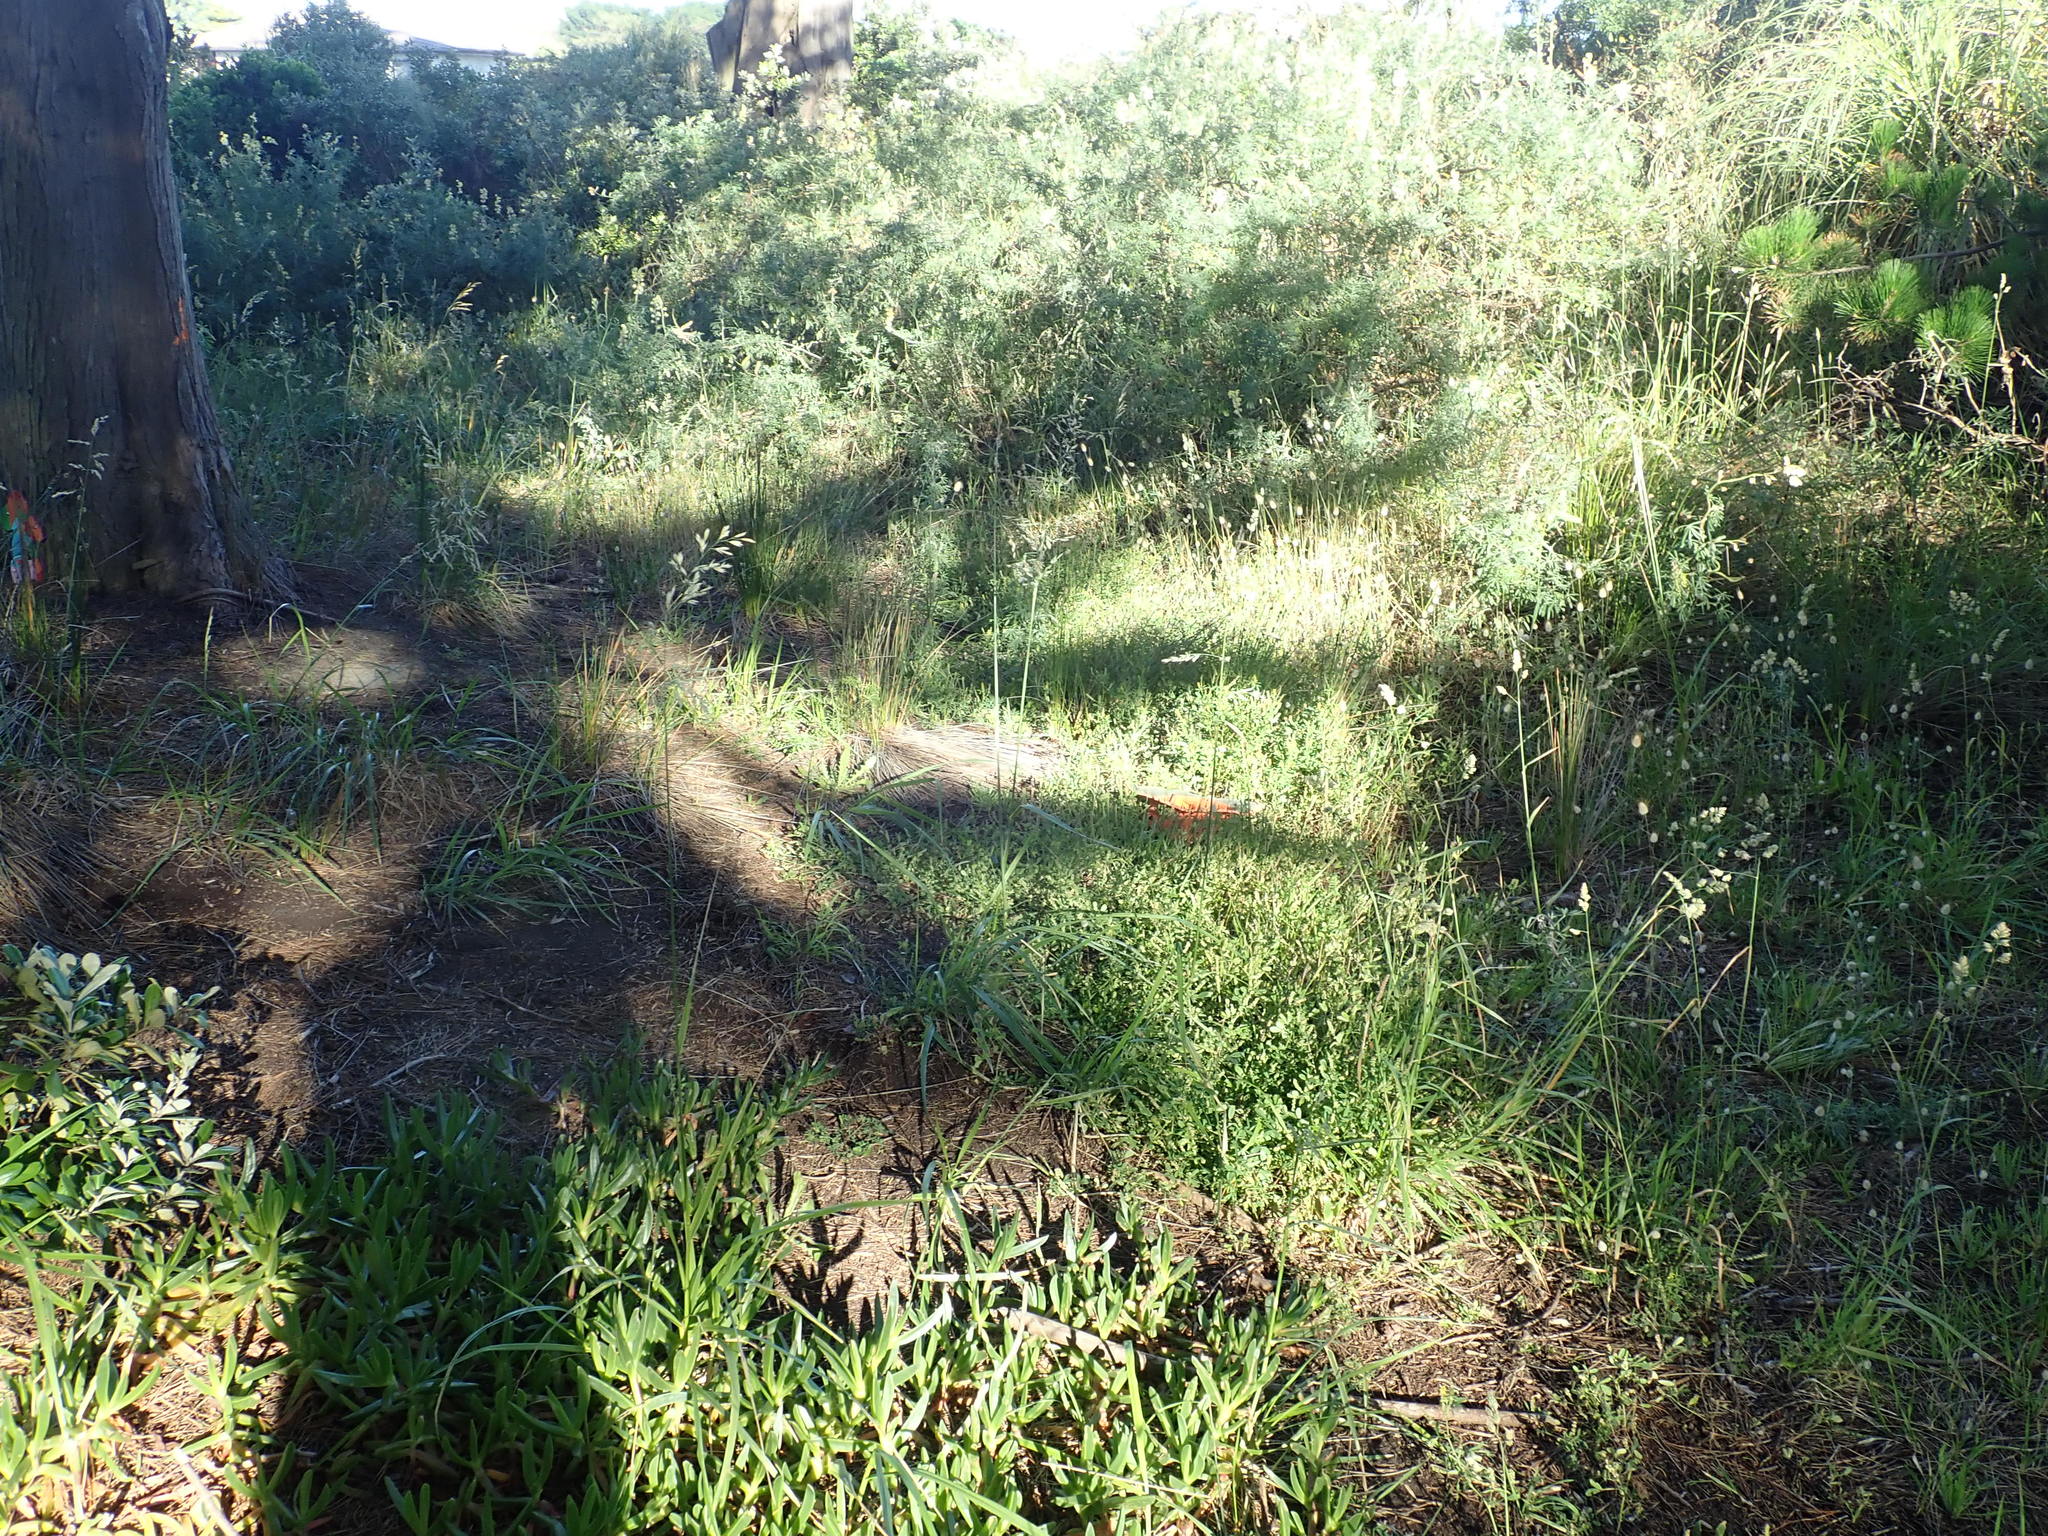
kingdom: Plantae
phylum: Tracheophyta
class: Magnoliopsida
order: Fabales
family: Fabaceae
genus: Vicia
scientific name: Vicia sativa
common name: Garden vetch
